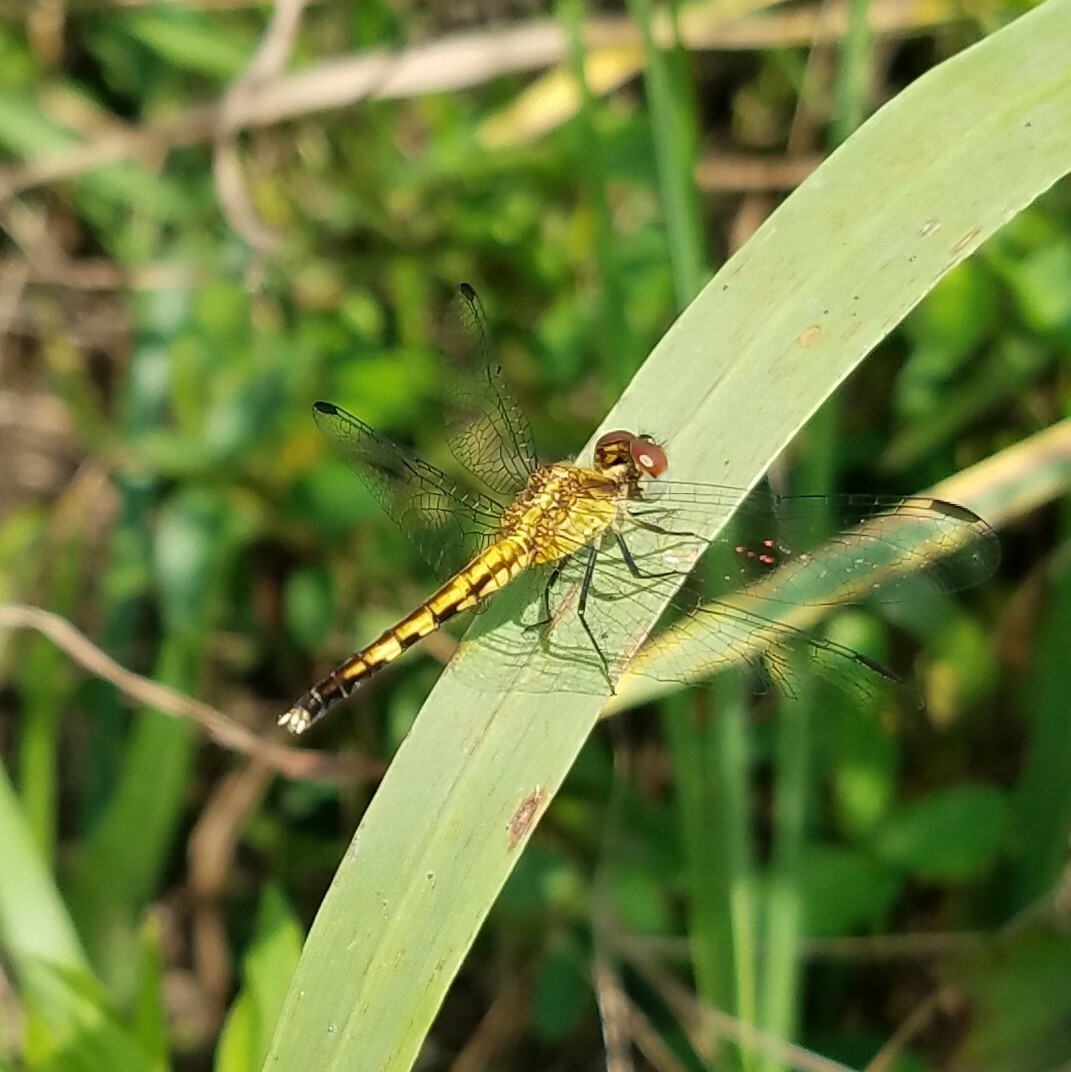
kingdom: Animalia
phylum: Arthropoda
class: Insecta
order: Odonata
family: Libellulidae
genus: Erythrodiplax
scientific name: Erythrodiplax minuscula
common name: Little blue dragonlet
